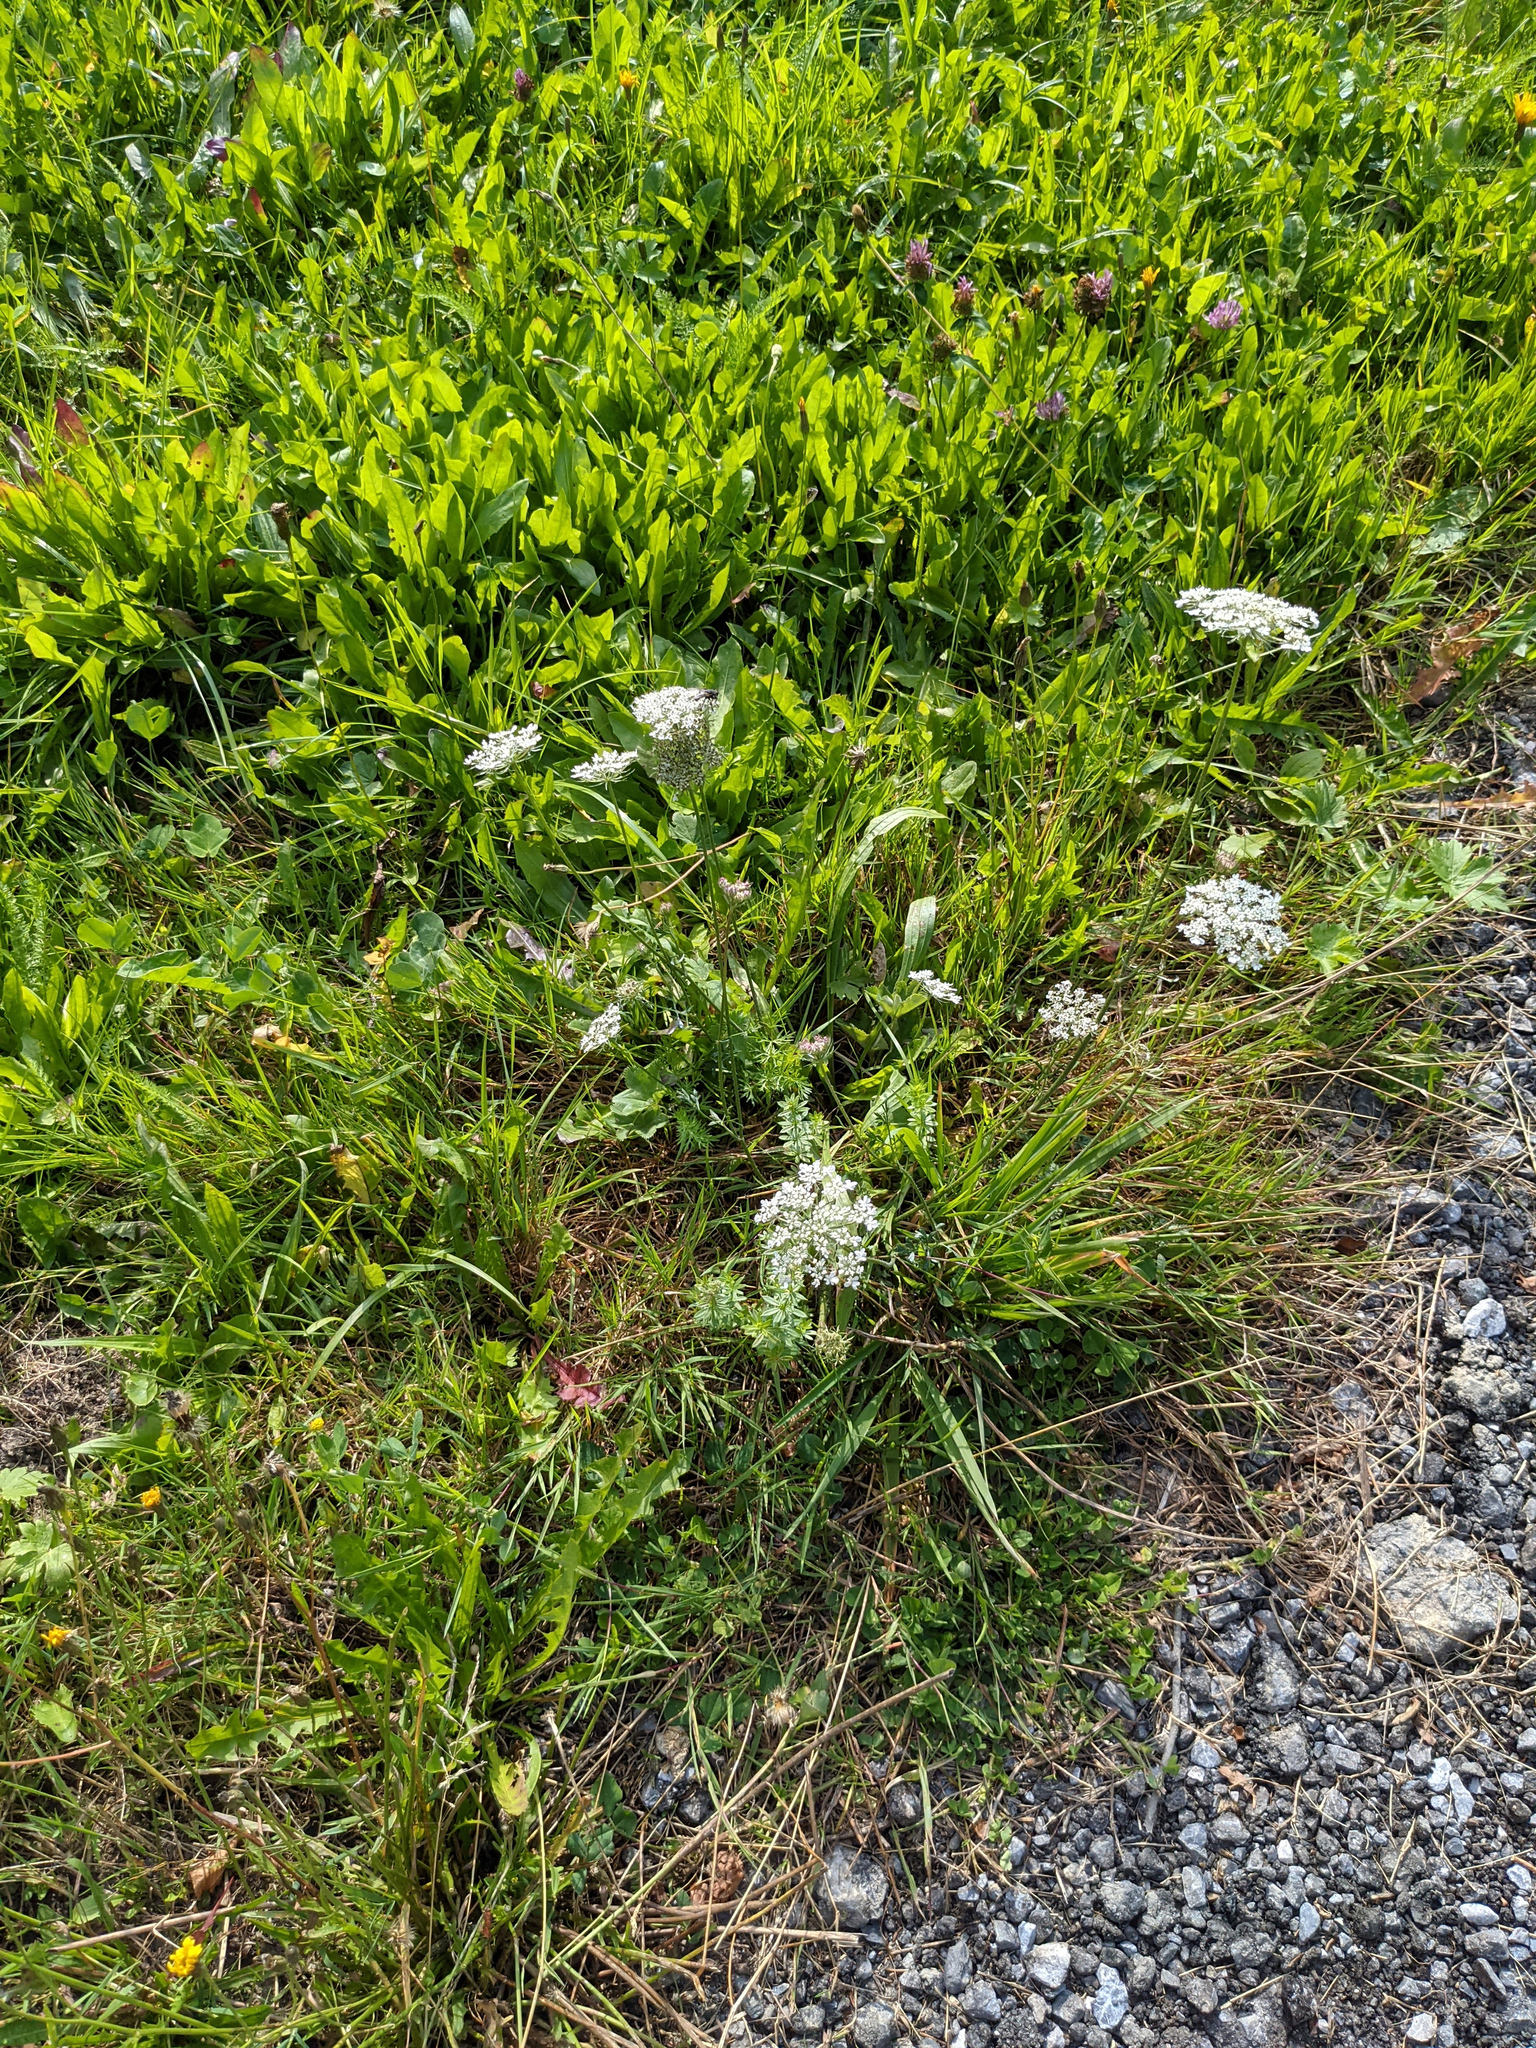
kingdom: Plantae
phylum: Tracheophyta
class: Magnoliopsida
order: Apiales
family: Apiaceae
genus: Daucus
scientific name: Daucus carota
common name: Wild carrot
